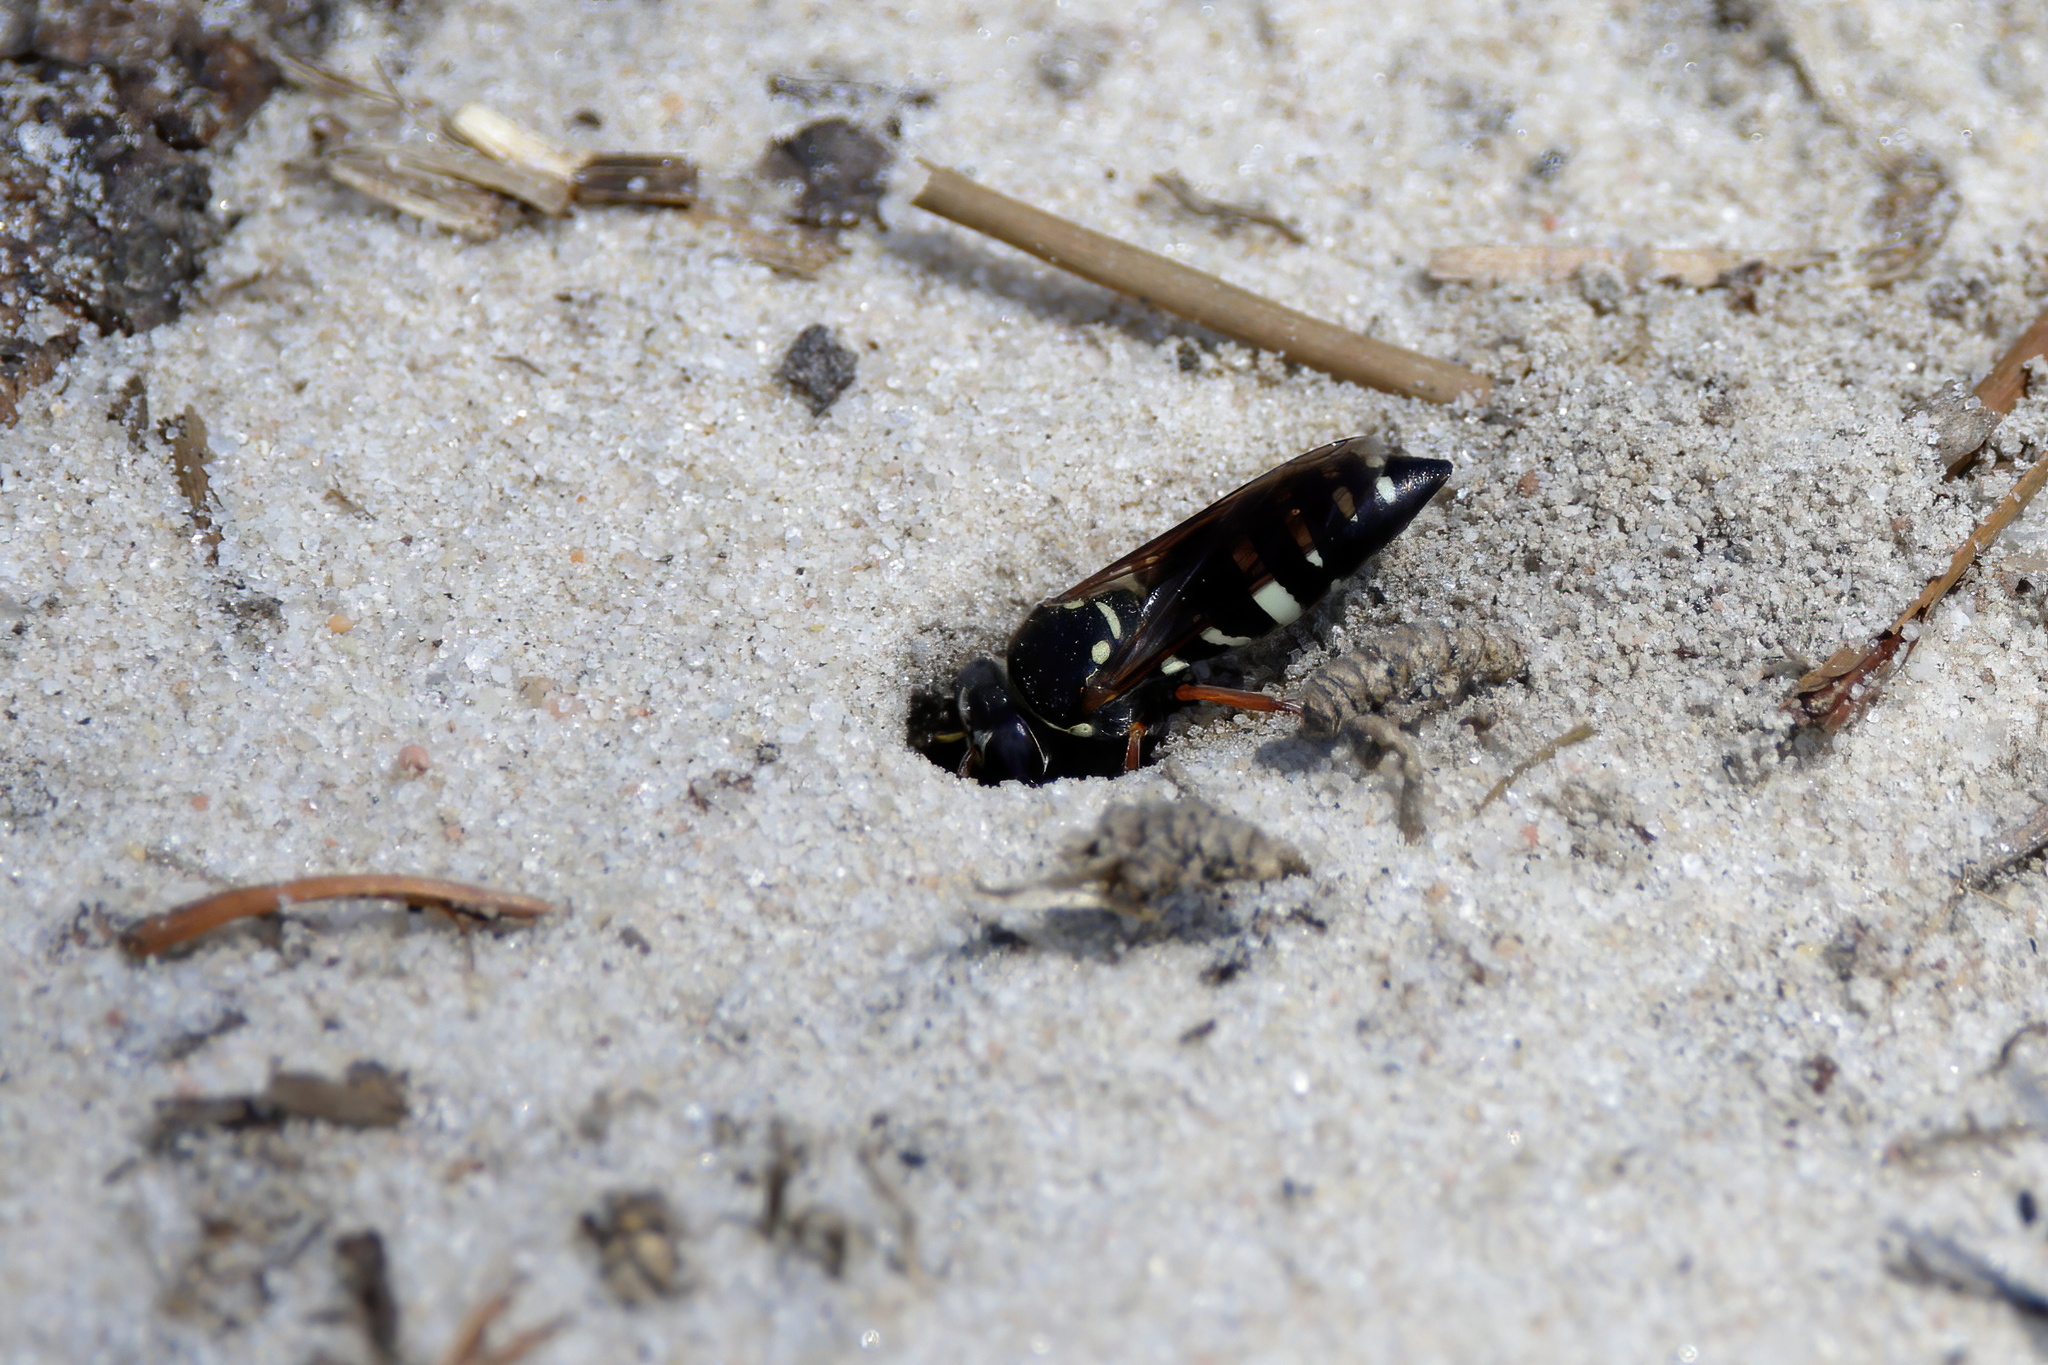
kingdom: Animalia
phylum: Arthropoda
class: Insecta
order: Hymenoptera
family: Crabronidae
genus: Bicyrtes
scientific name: Bicyrtes ventralis
